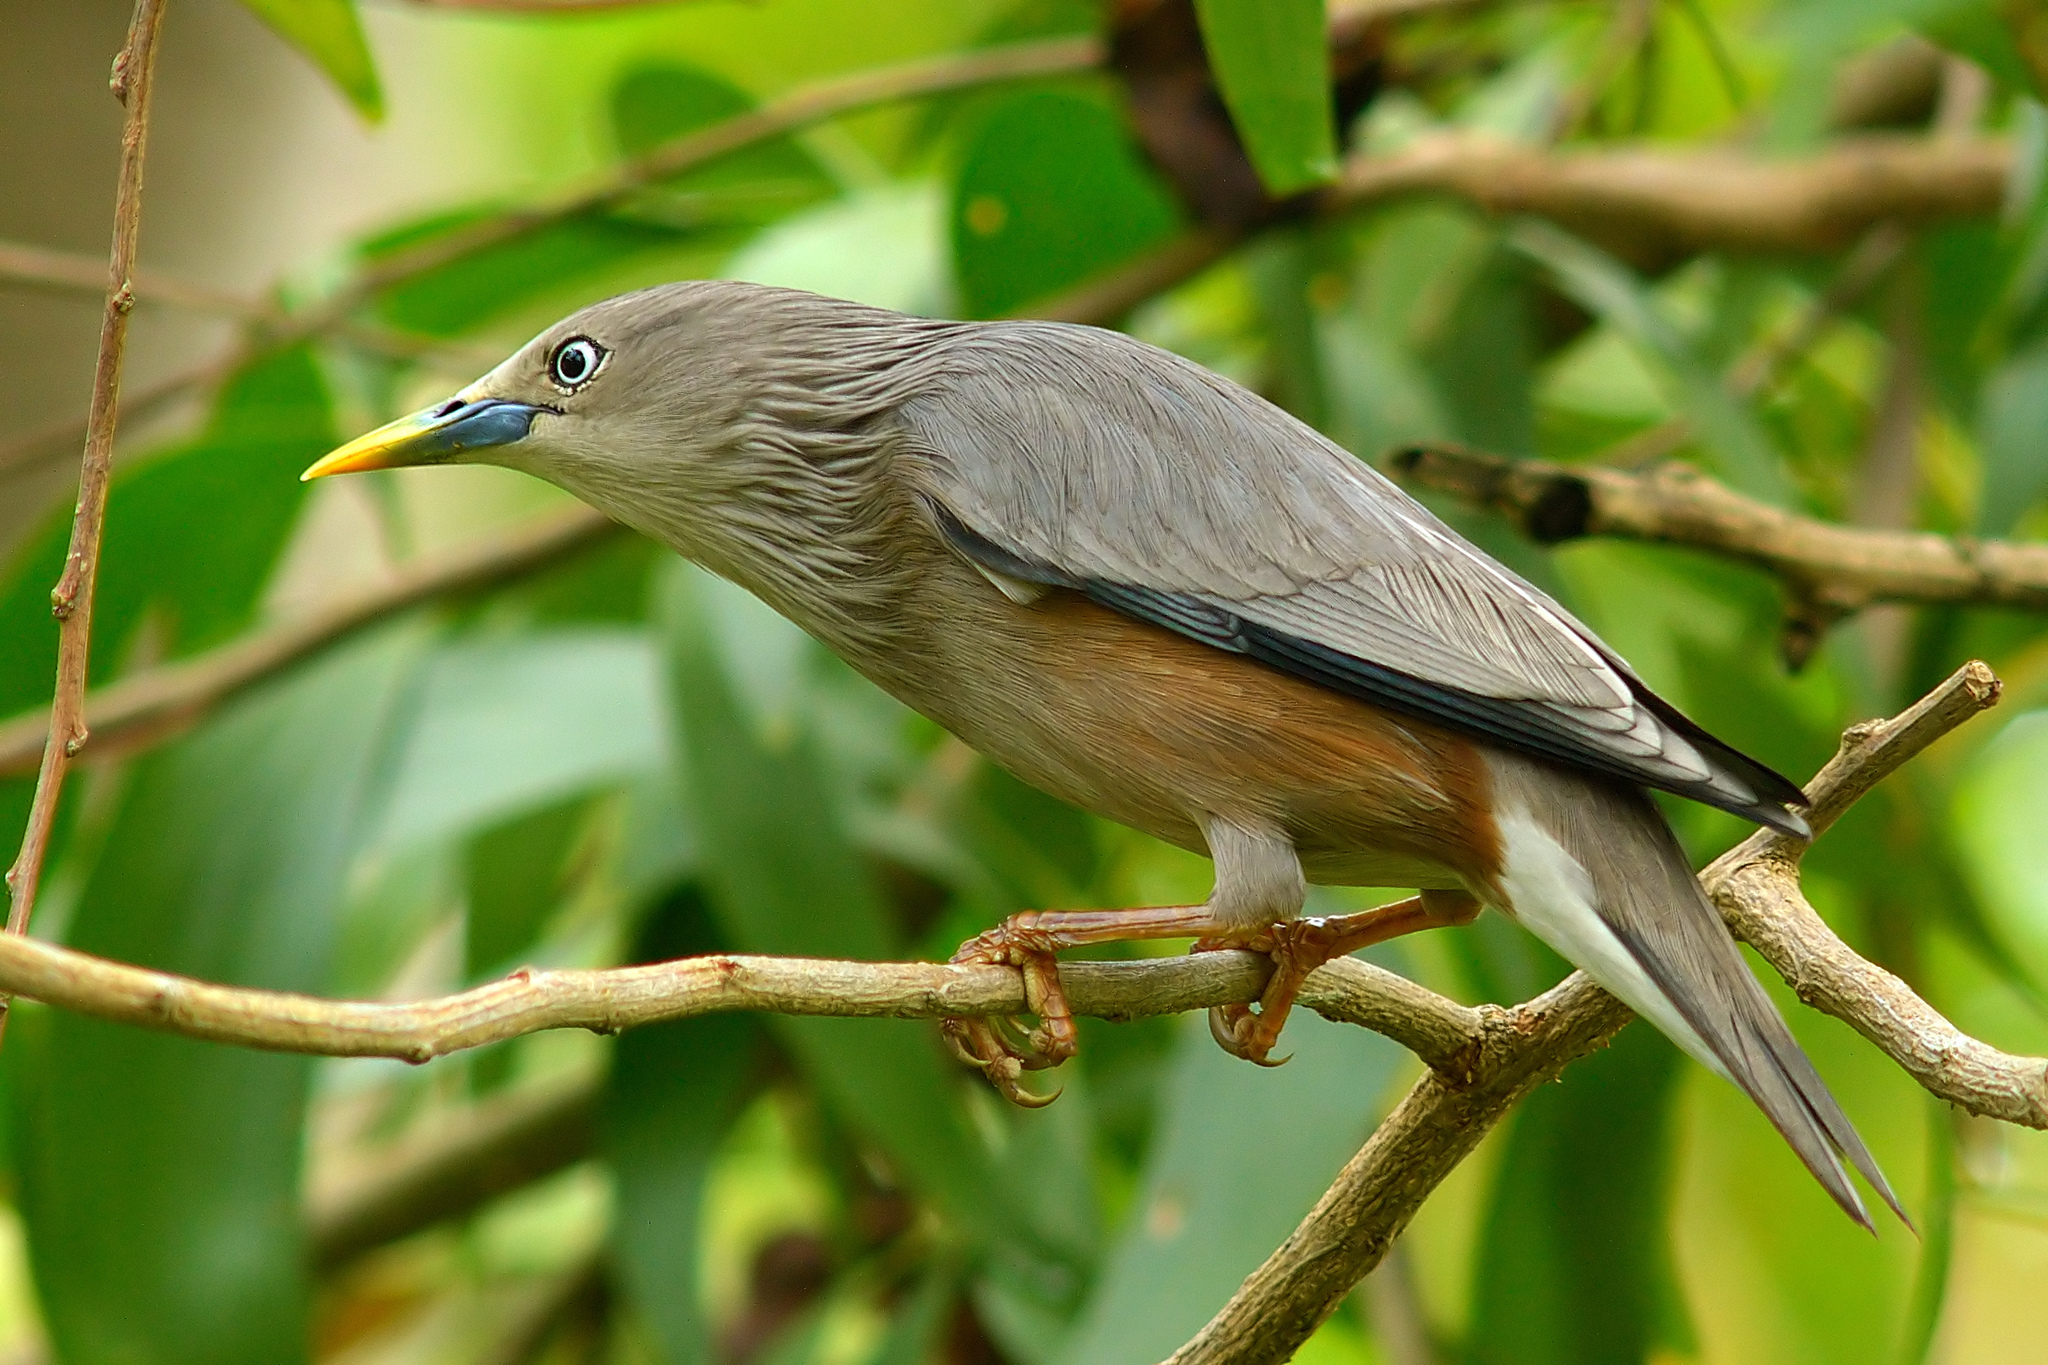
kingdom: Animalia
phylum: Chordata
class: Aves
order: Passeriformes
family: Sturnidae
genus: Sturnia
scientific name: Sturnia malabarica
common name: Chestnut-tailed starling
